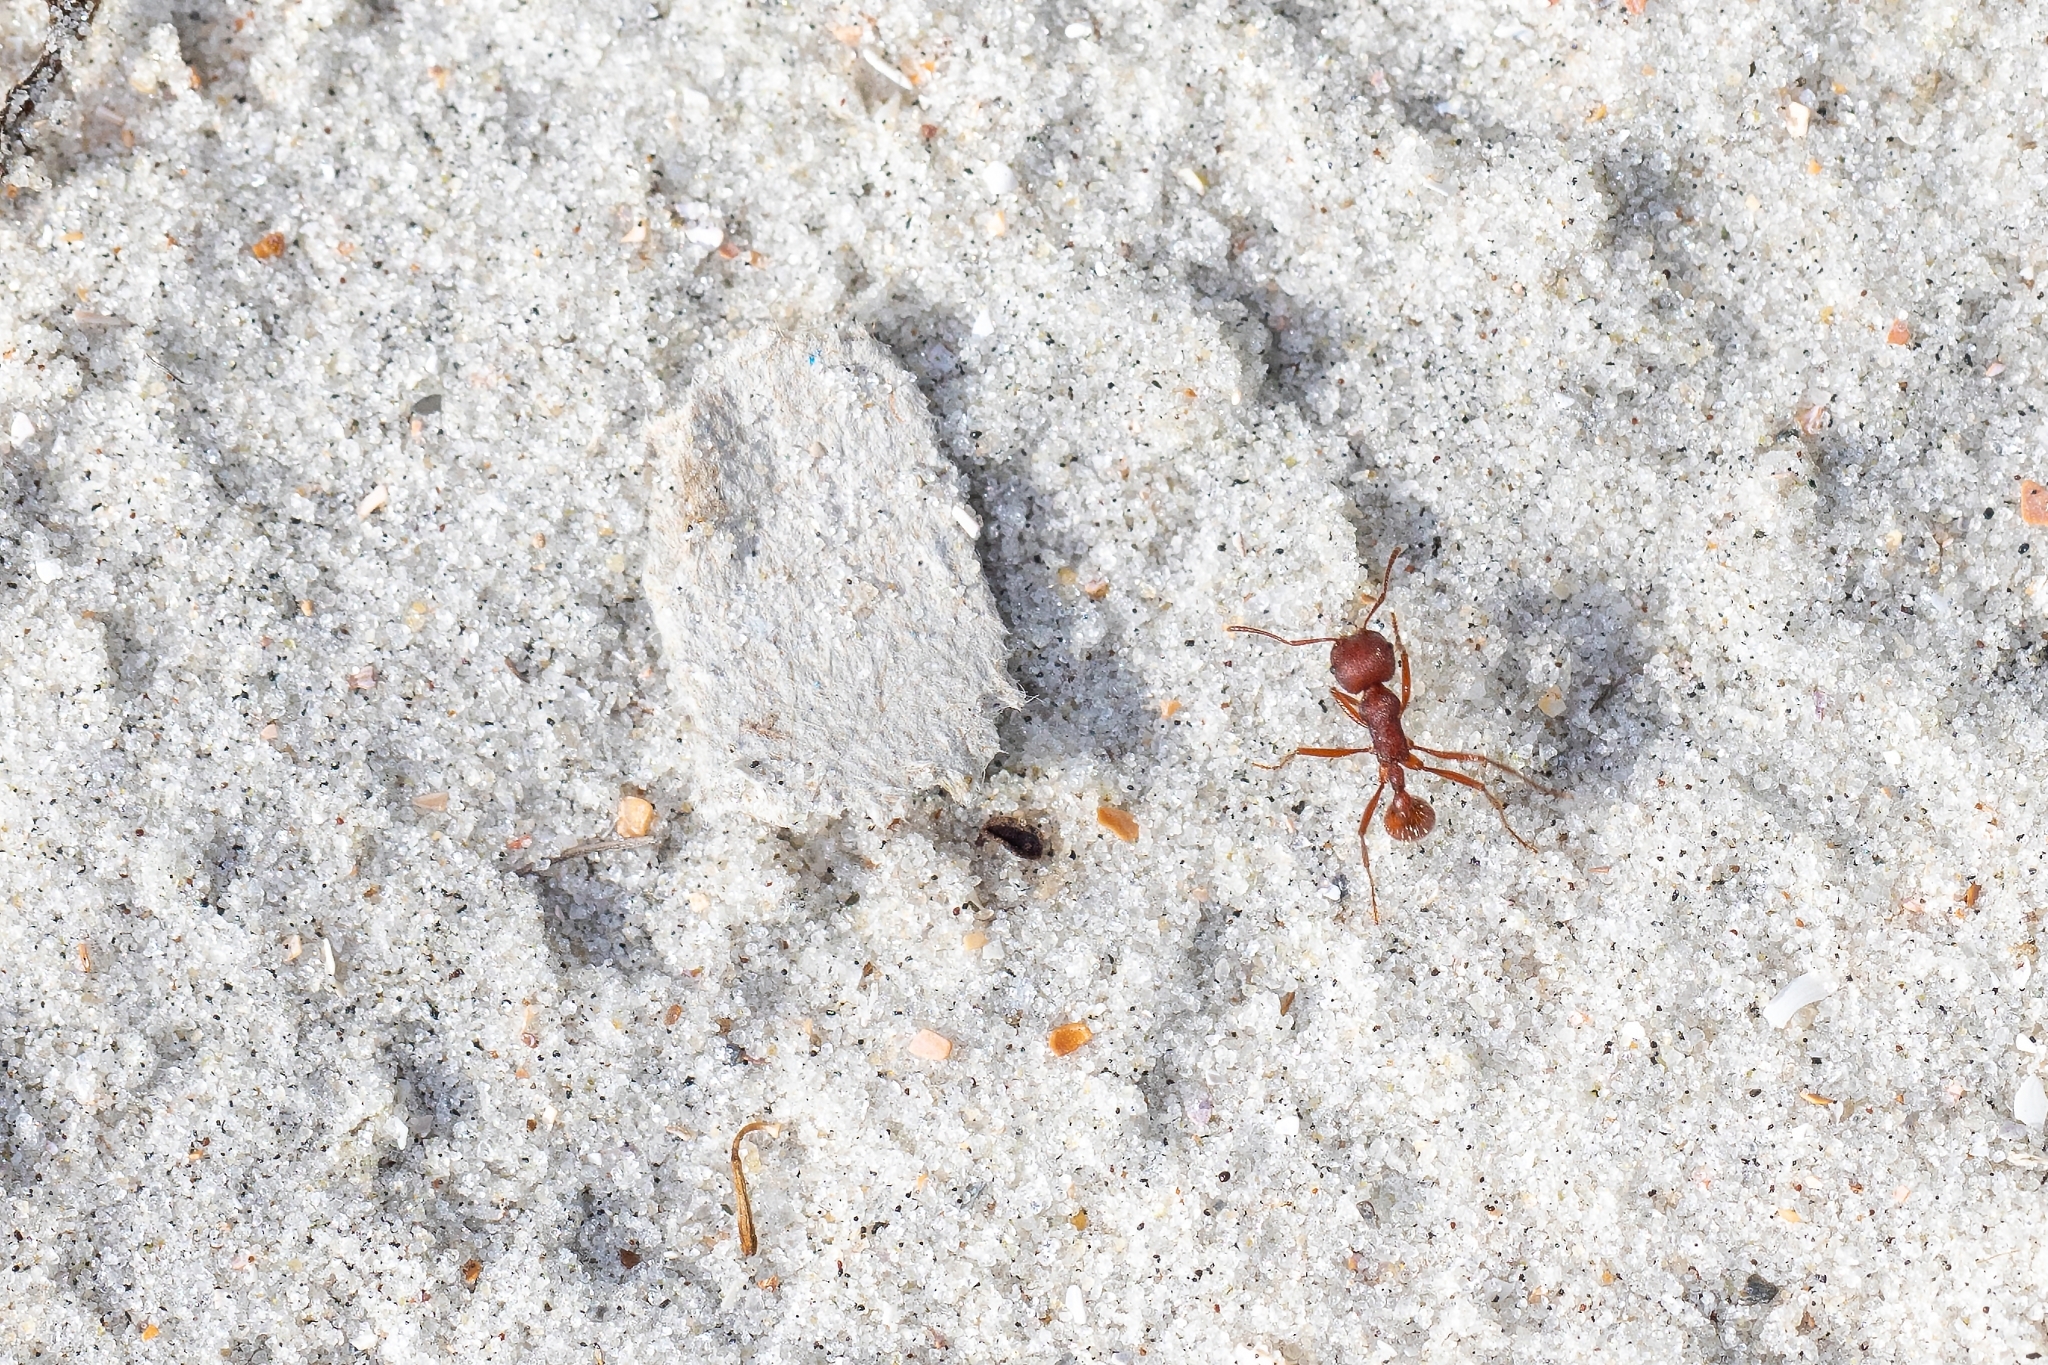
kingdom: Animalia
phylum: Arthropoda
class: Insecta
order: Hymenoptera
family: Formicidae
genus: Pogonomyrmex
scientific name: Pogonomyrmex badius
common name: Florida harvester ant
